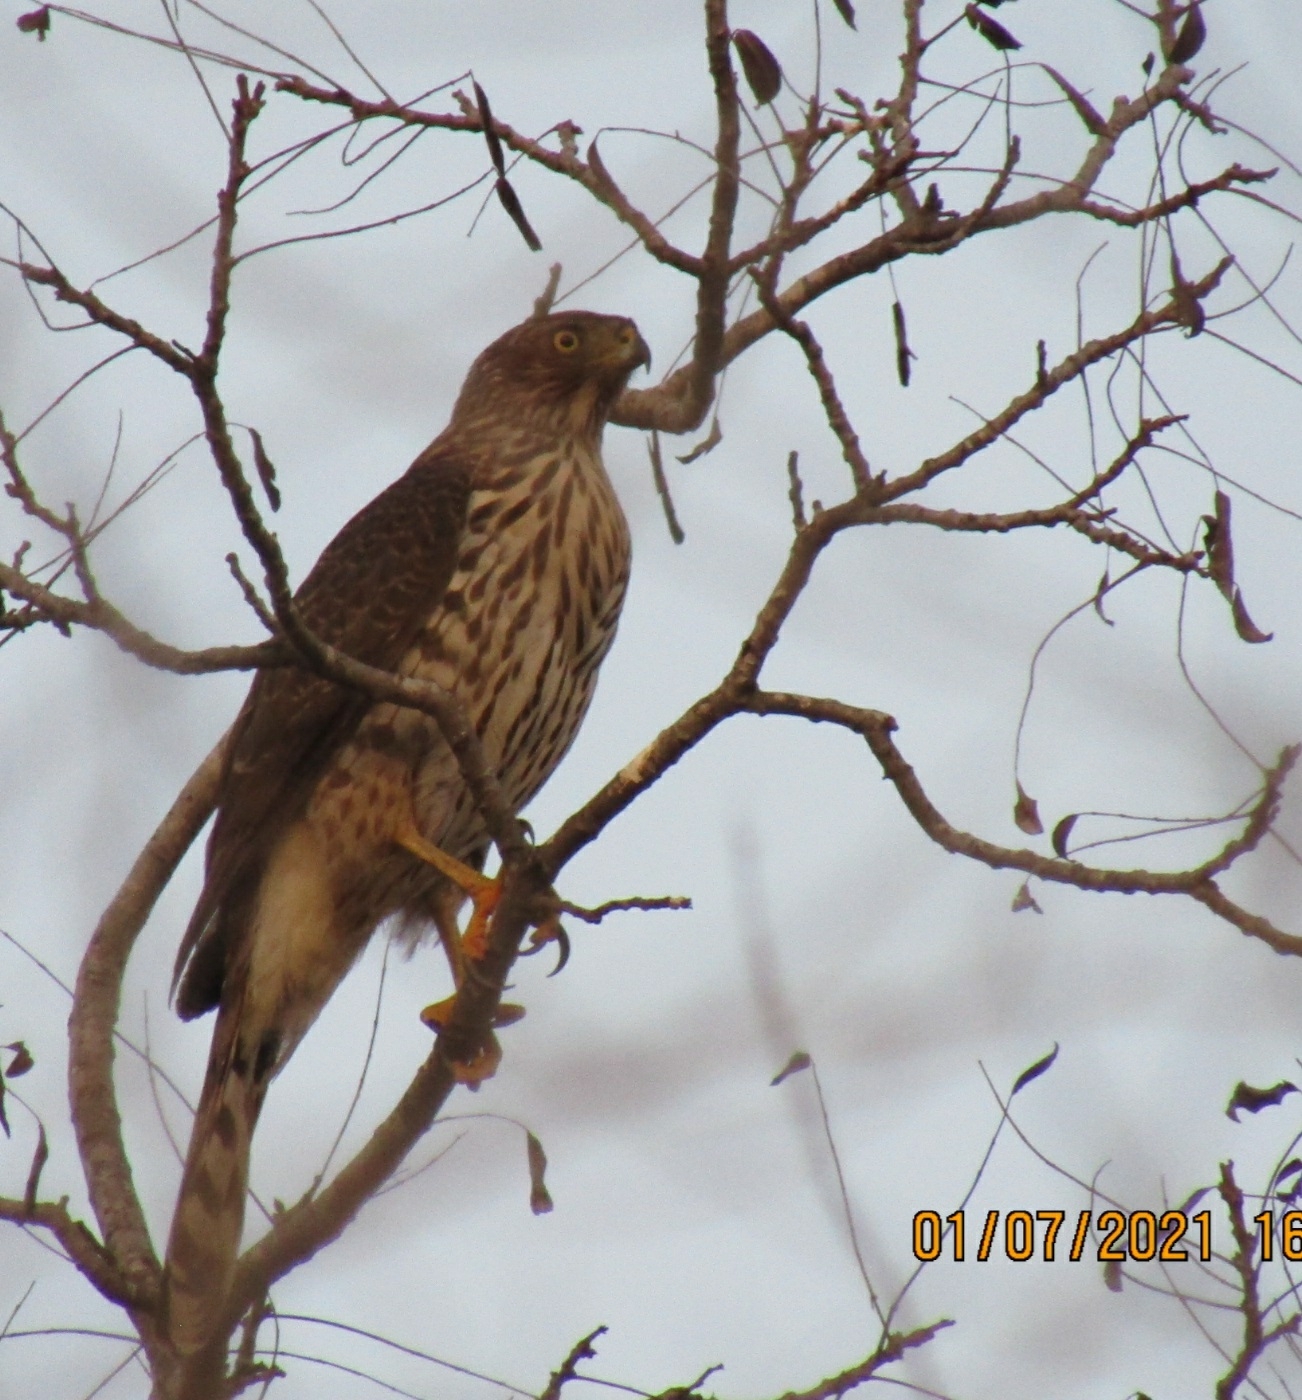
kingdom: Animalia
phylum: Chordata
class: Aves
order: Accipitriformes
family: Accipitridae
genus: Accipiter
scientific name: Accipiter cooperii
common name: Cooper's hawk
